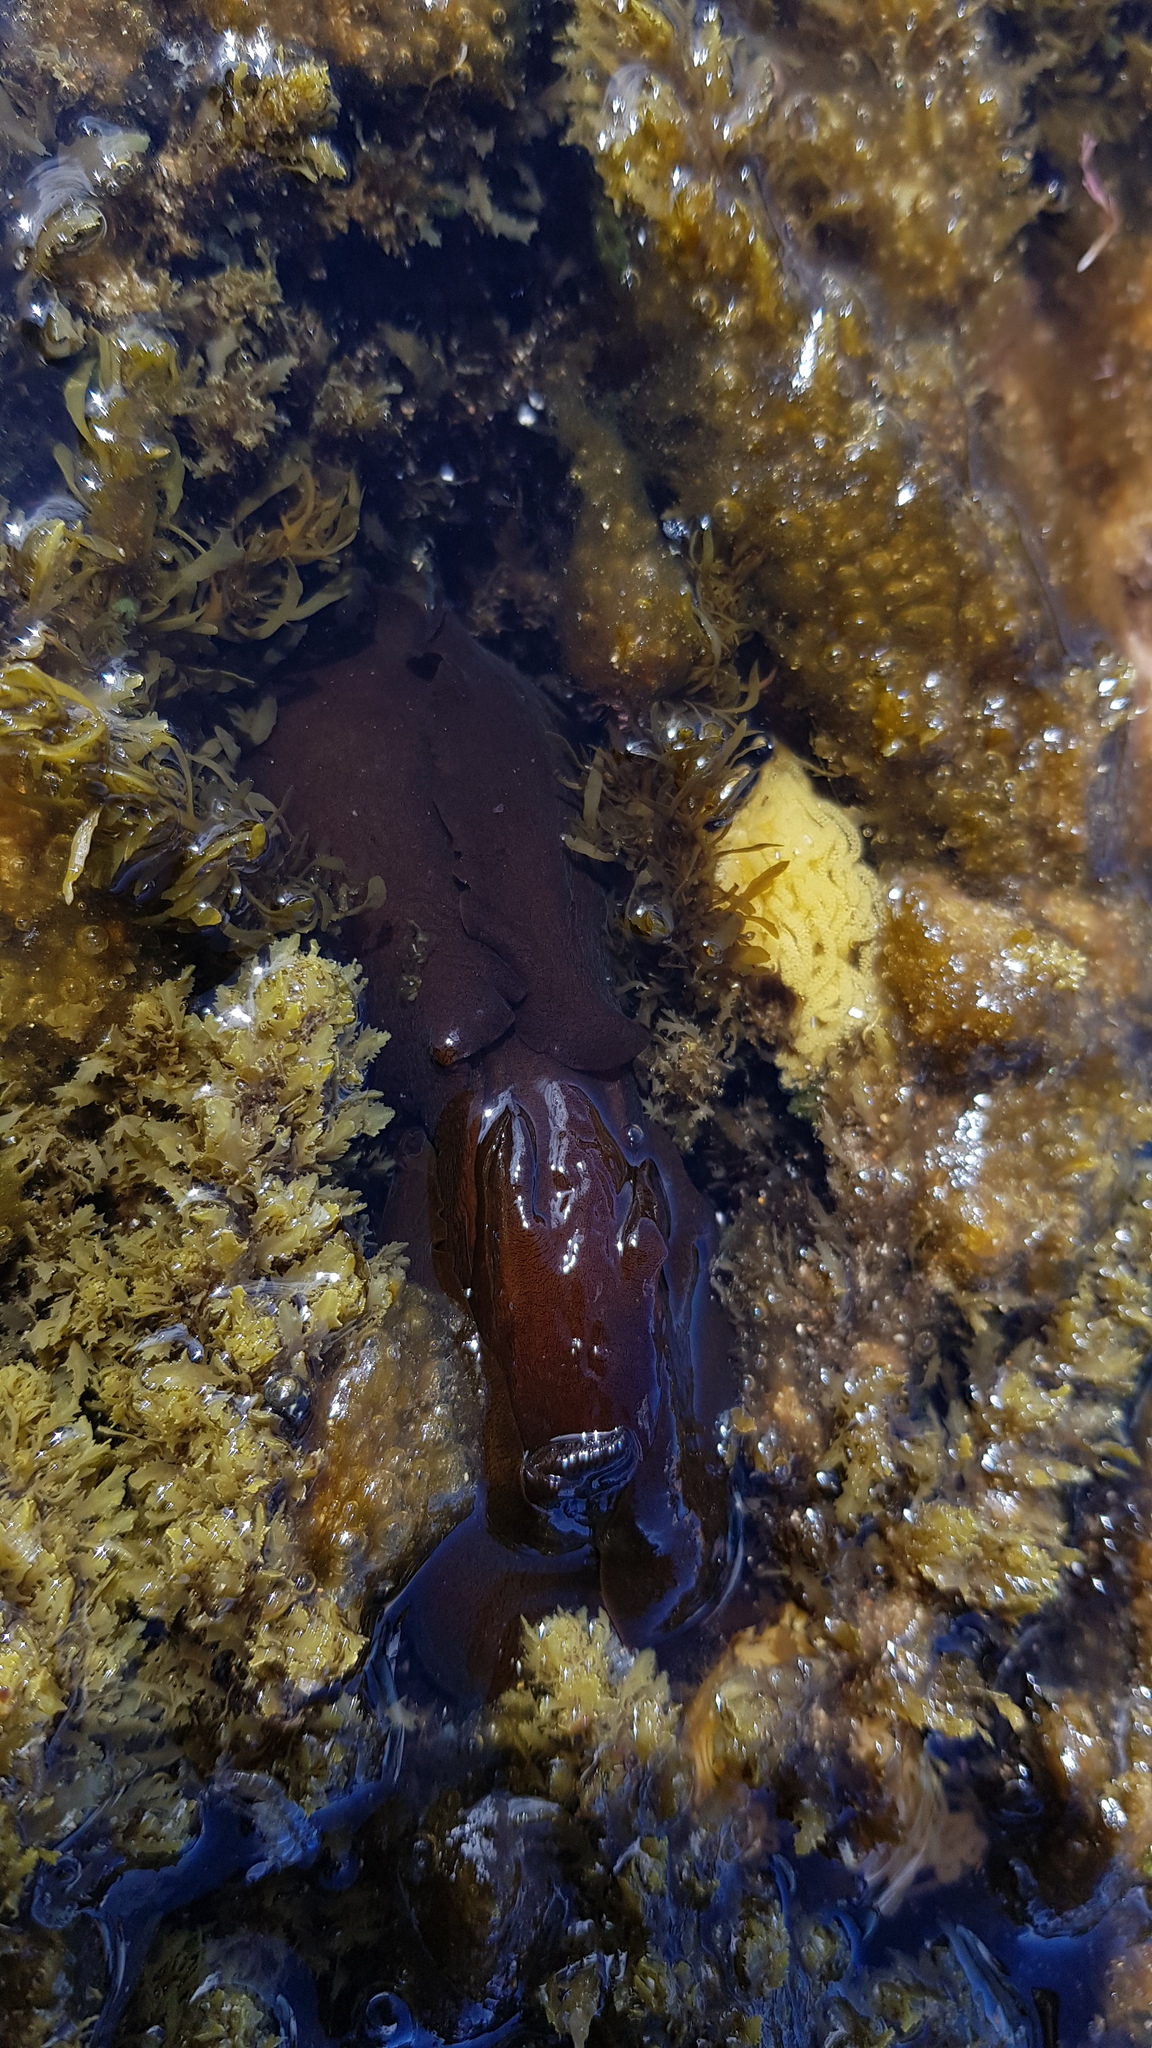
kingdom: Animalia
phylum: Mollusca
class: Gastropoda
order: Aplysiida
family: Aplysiidae
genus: Aplysia
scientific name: Aplysia juliana
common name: Walking sea hare
